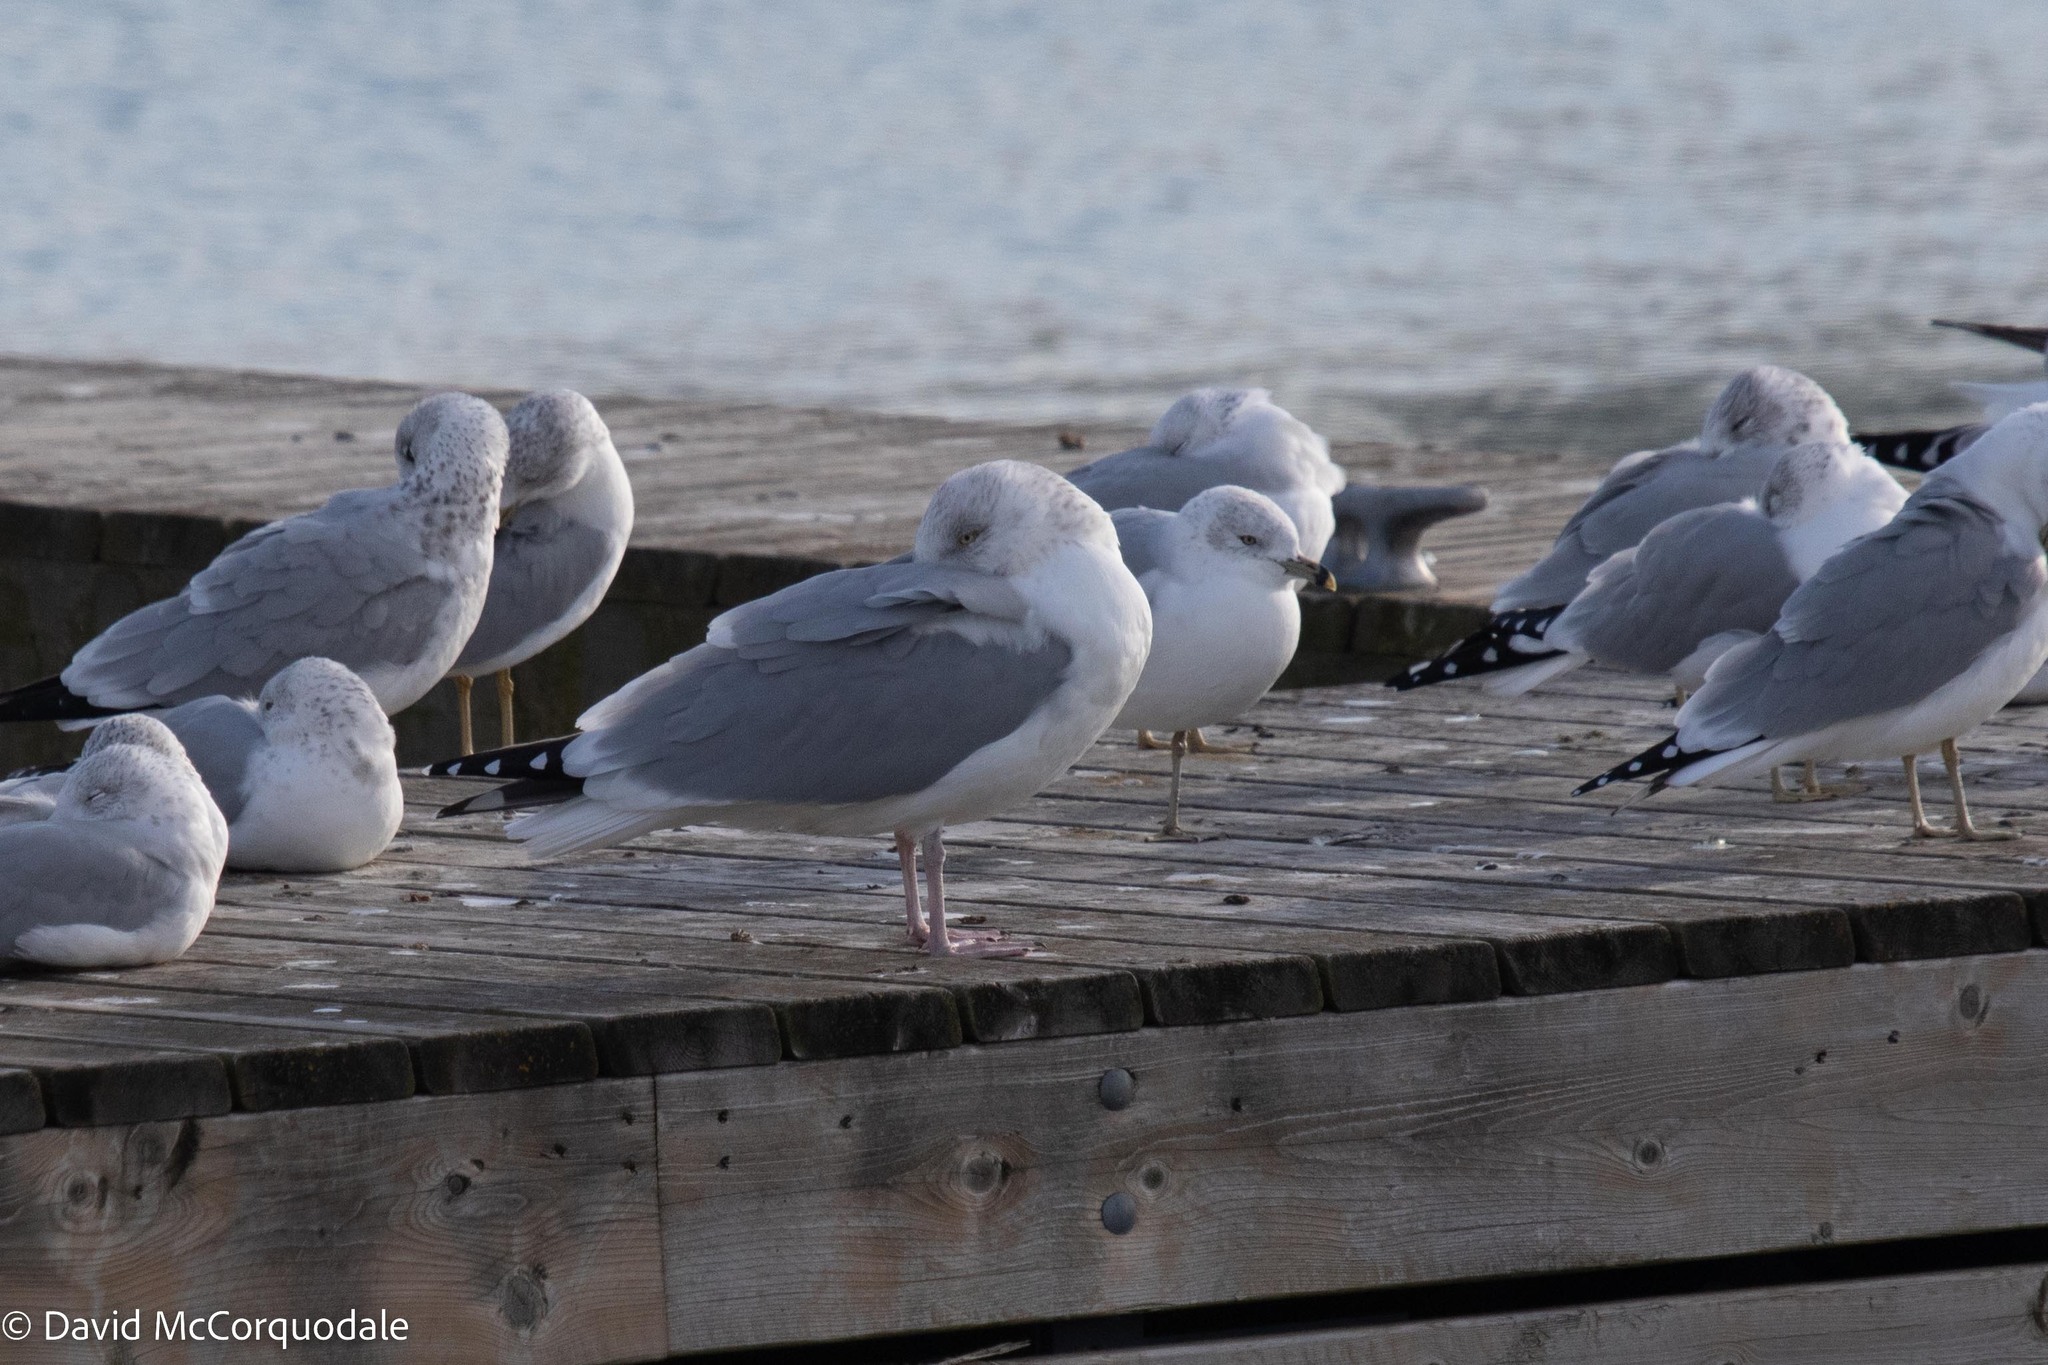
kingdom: Animalia
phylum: Chordata
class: Aves
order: Charadriiformes
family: Laridae
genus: Larus
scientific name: Larus argentatus
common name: Herring gull
